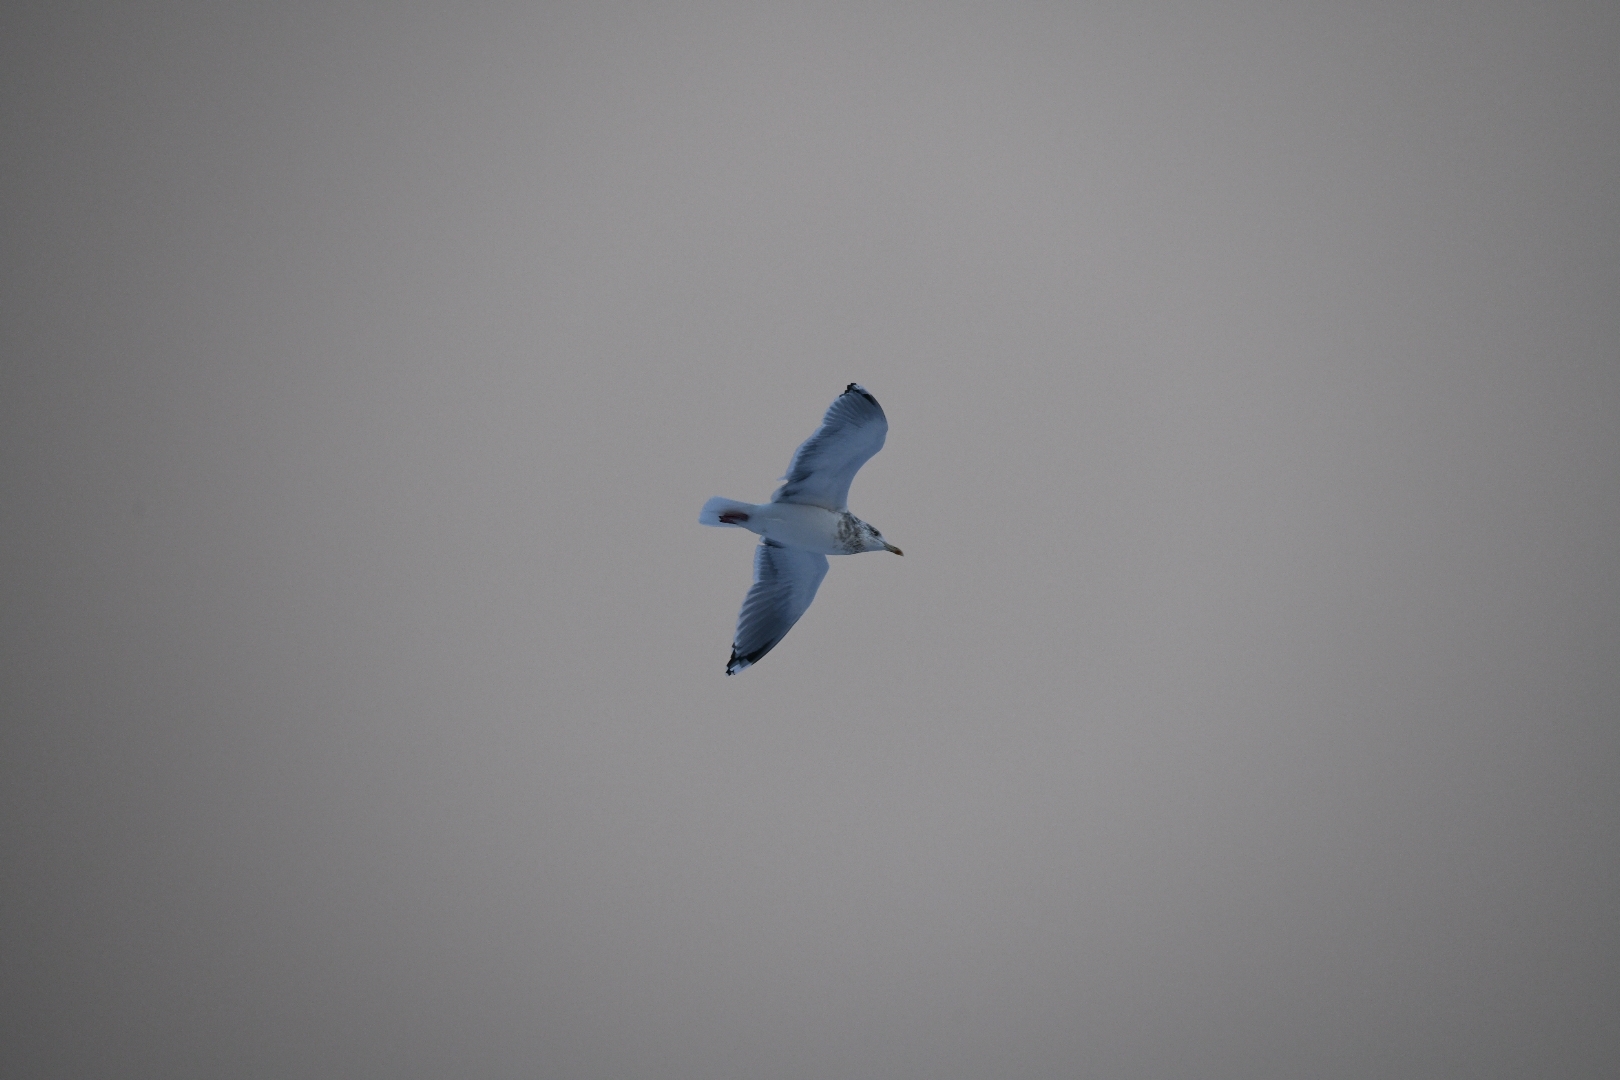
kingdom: Animalia
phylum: Chordata
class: Aves
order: Charadriiformes
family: Laridae
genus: Larus
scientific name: Larus argentatus
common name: Herring gull
